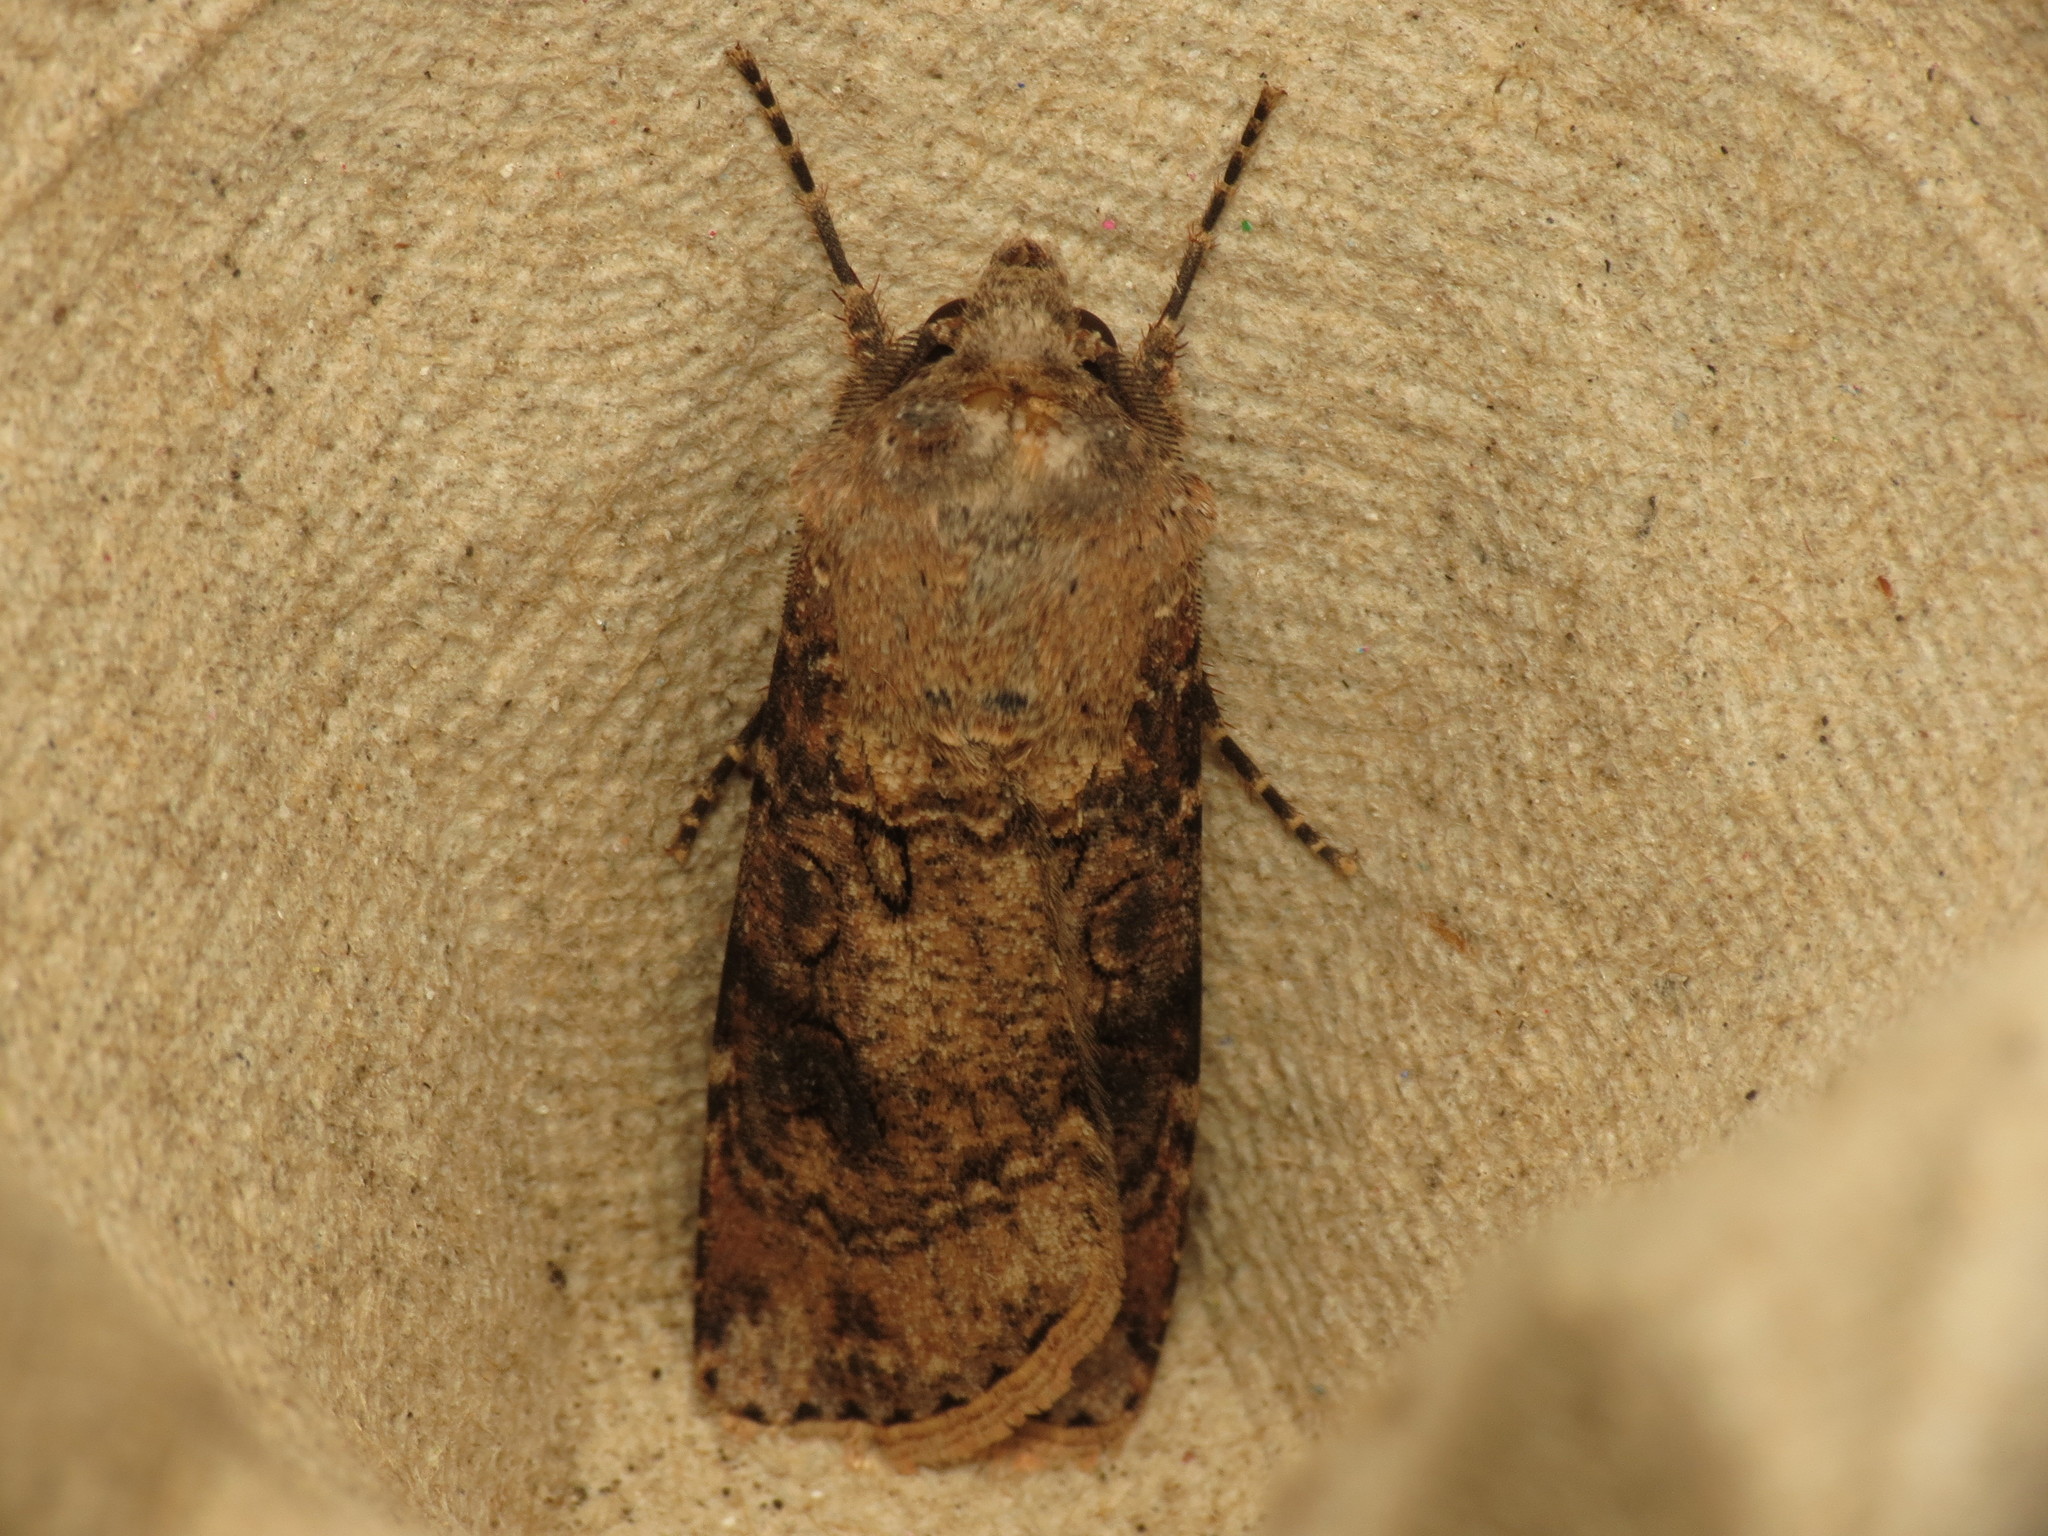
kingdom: Animalia
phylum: Arthropoda
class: Insecta
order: Lepidoptera
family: Noctuidae
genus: Agrotis
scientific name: Agrotis segetum
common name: Turnip moth
